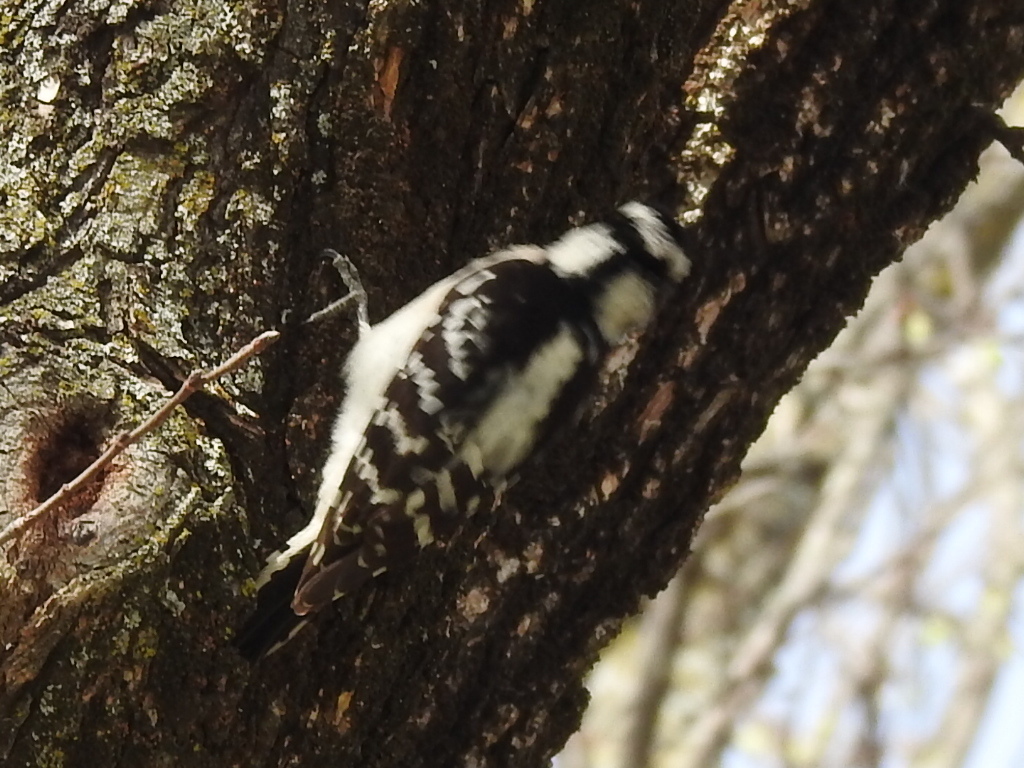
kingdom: Animalia
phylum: Chordata
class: Aves
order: Piciformes
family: Picidae
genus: Dryobates
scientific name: Dryobates pubescens
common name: Downy woodpecker
